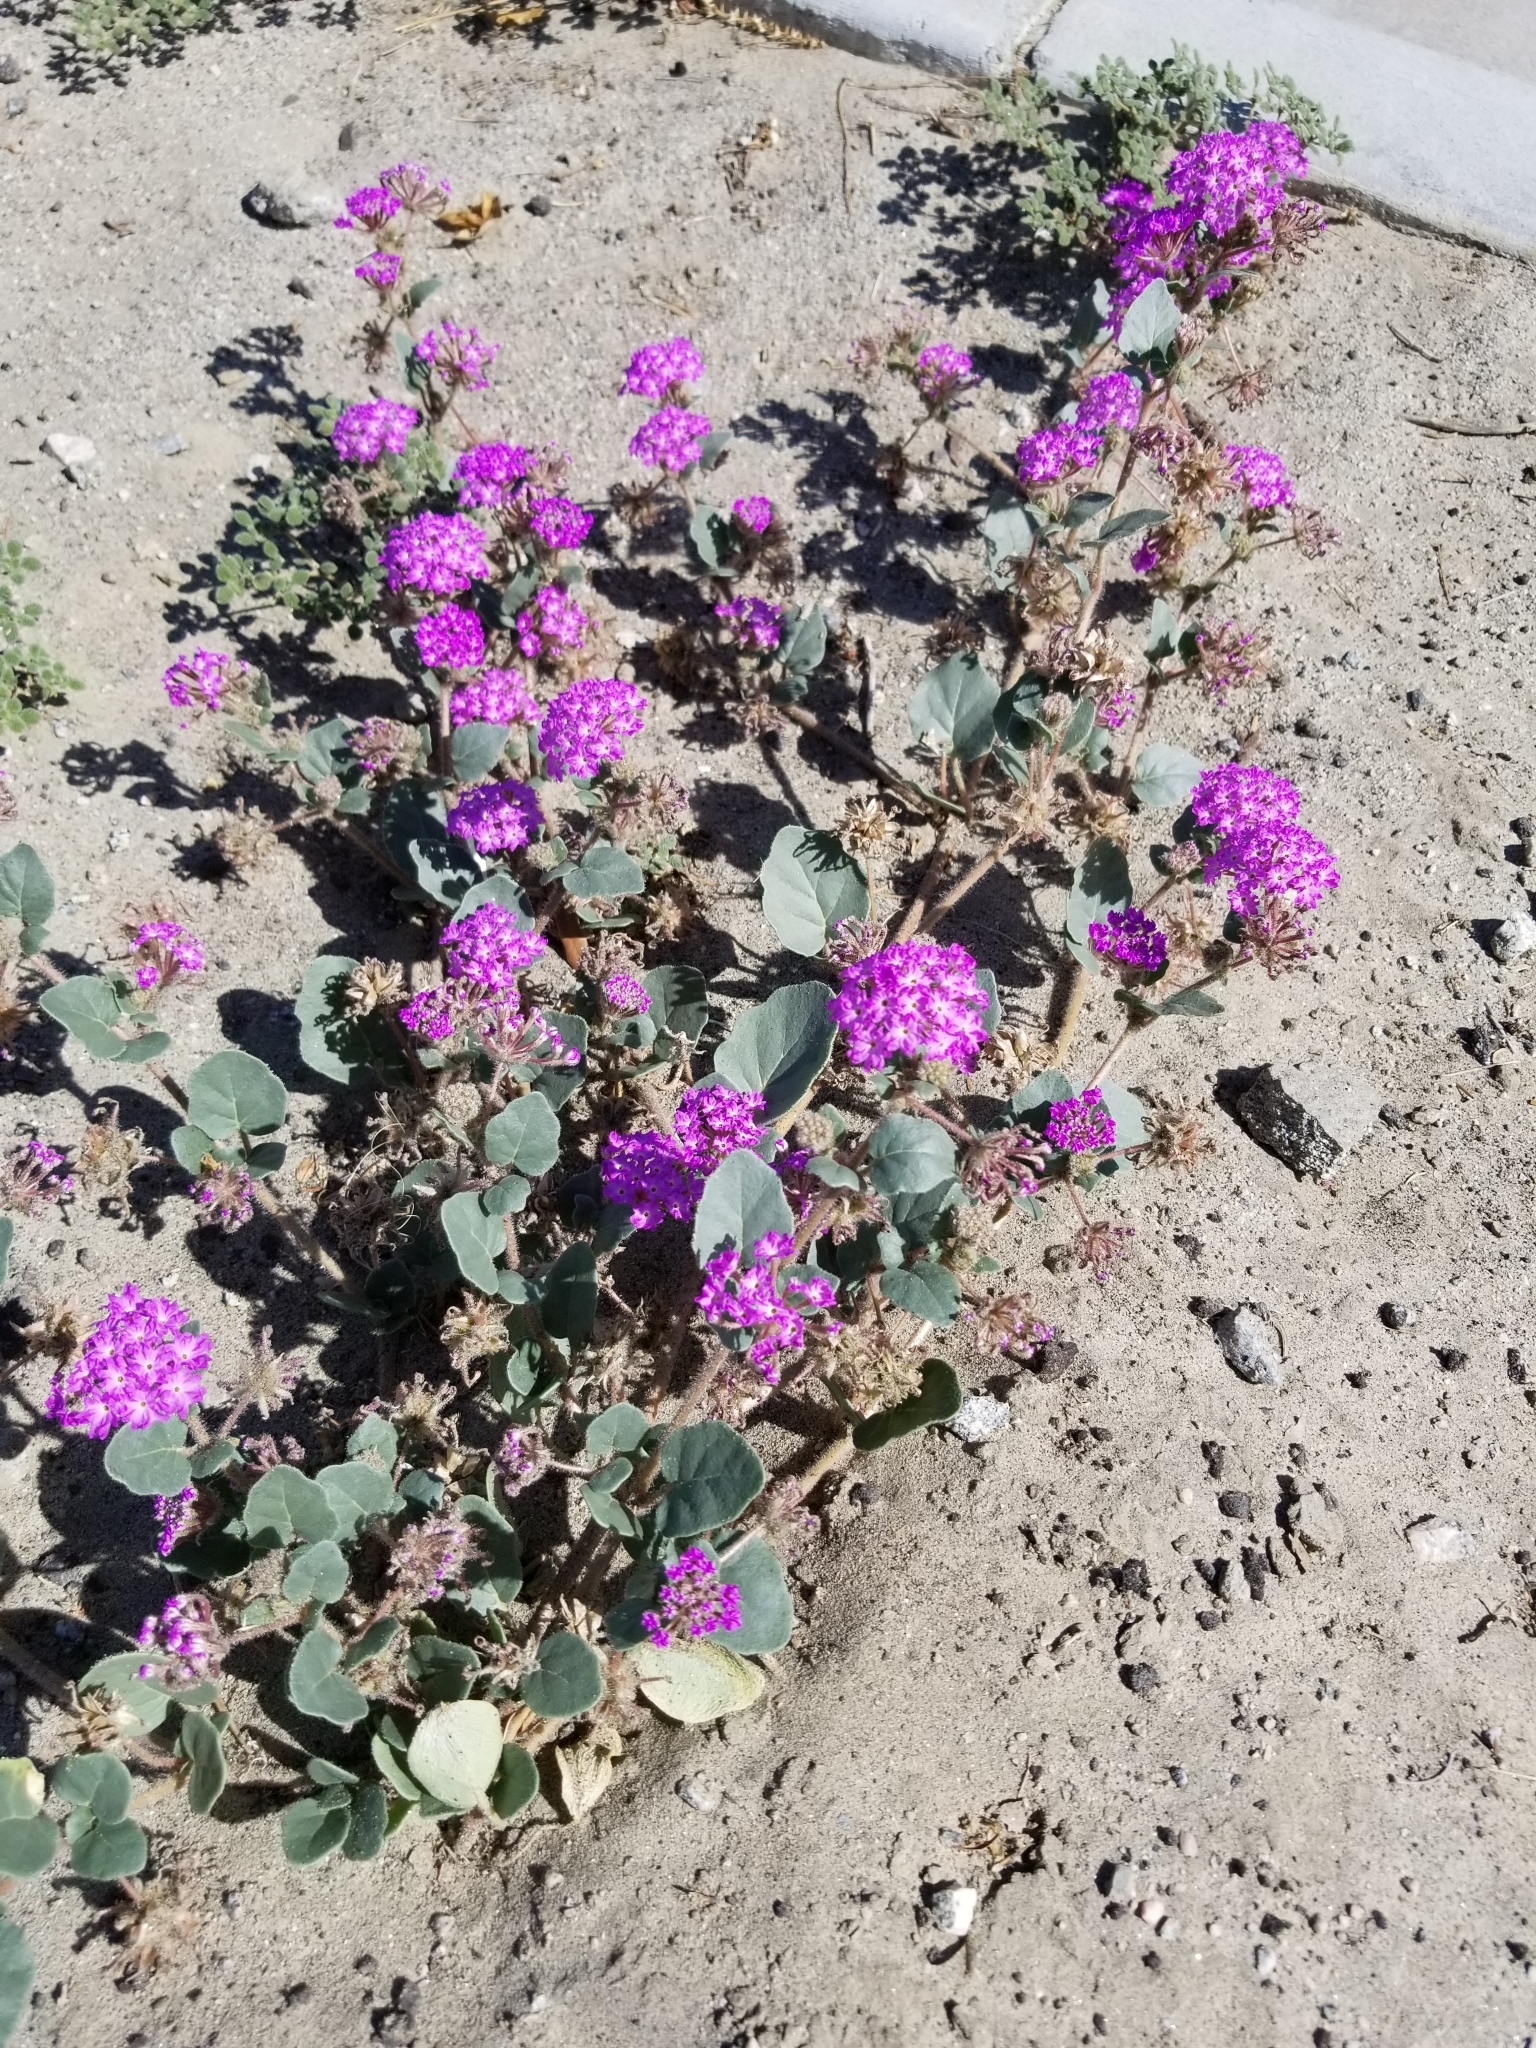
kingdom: Plantae
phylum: Tracheophyta
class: Magnoliopsida
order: Caryophyllales
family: Nyctaginaceae
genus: Abronia
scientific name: Abronia villosa
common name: Desert sand-verbena
